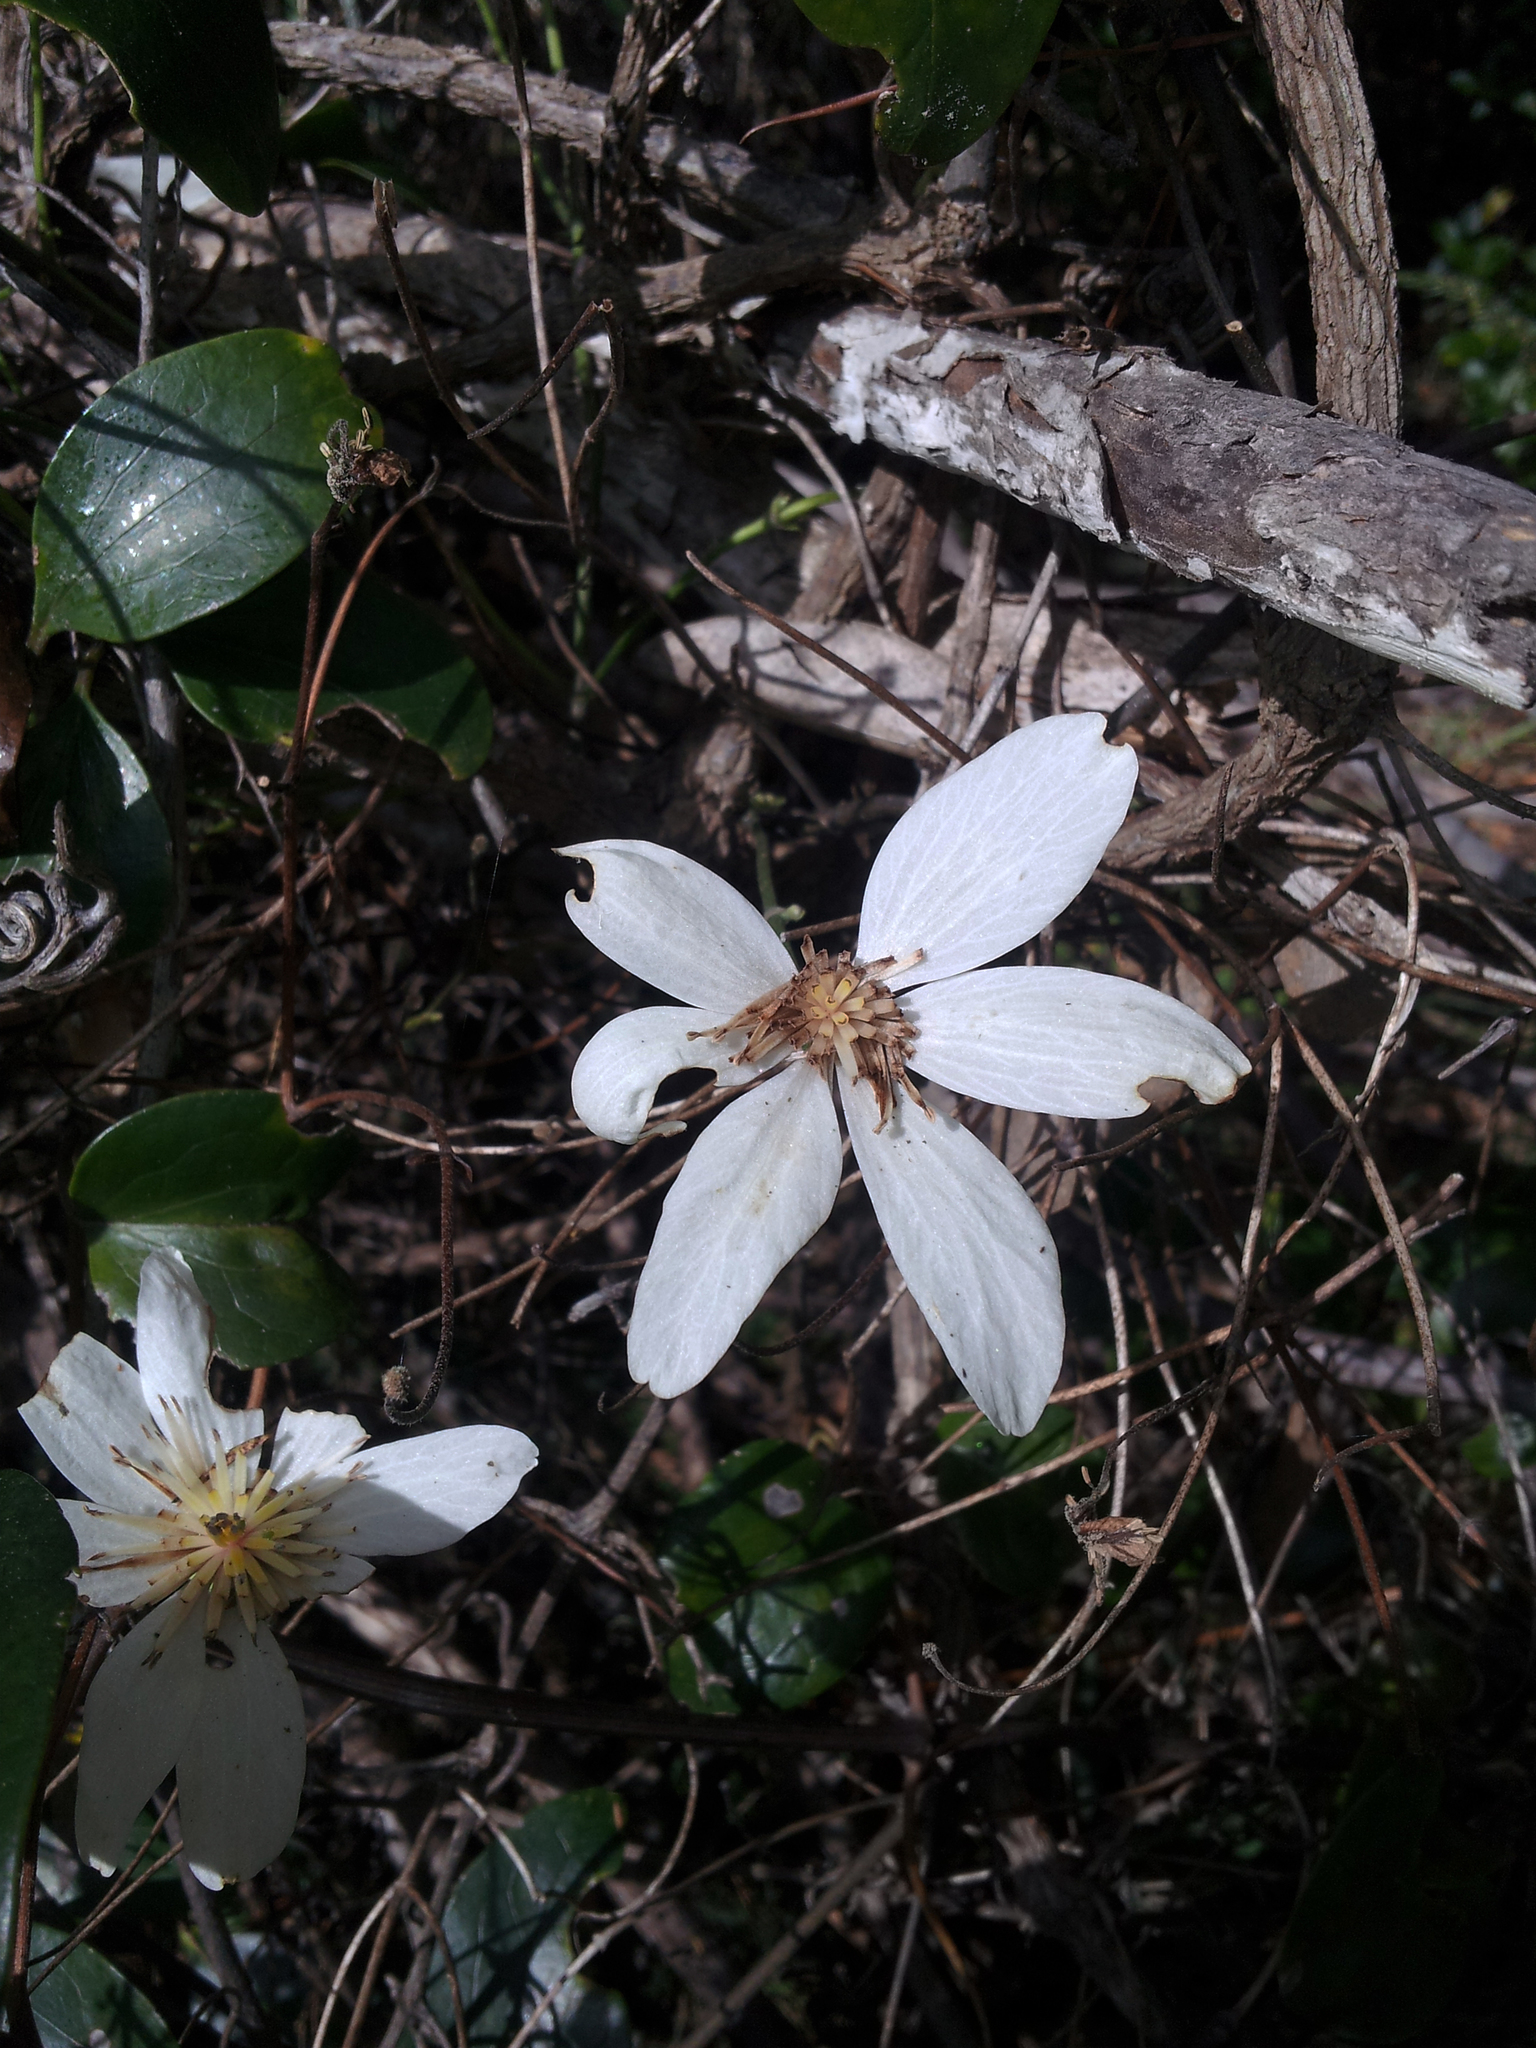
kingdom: Plantae
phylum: Tracheophyta
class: Magnoliopsida
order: Ranunculales
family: Ranunculaceae
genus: Clematis
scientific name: Clematis paniculata
